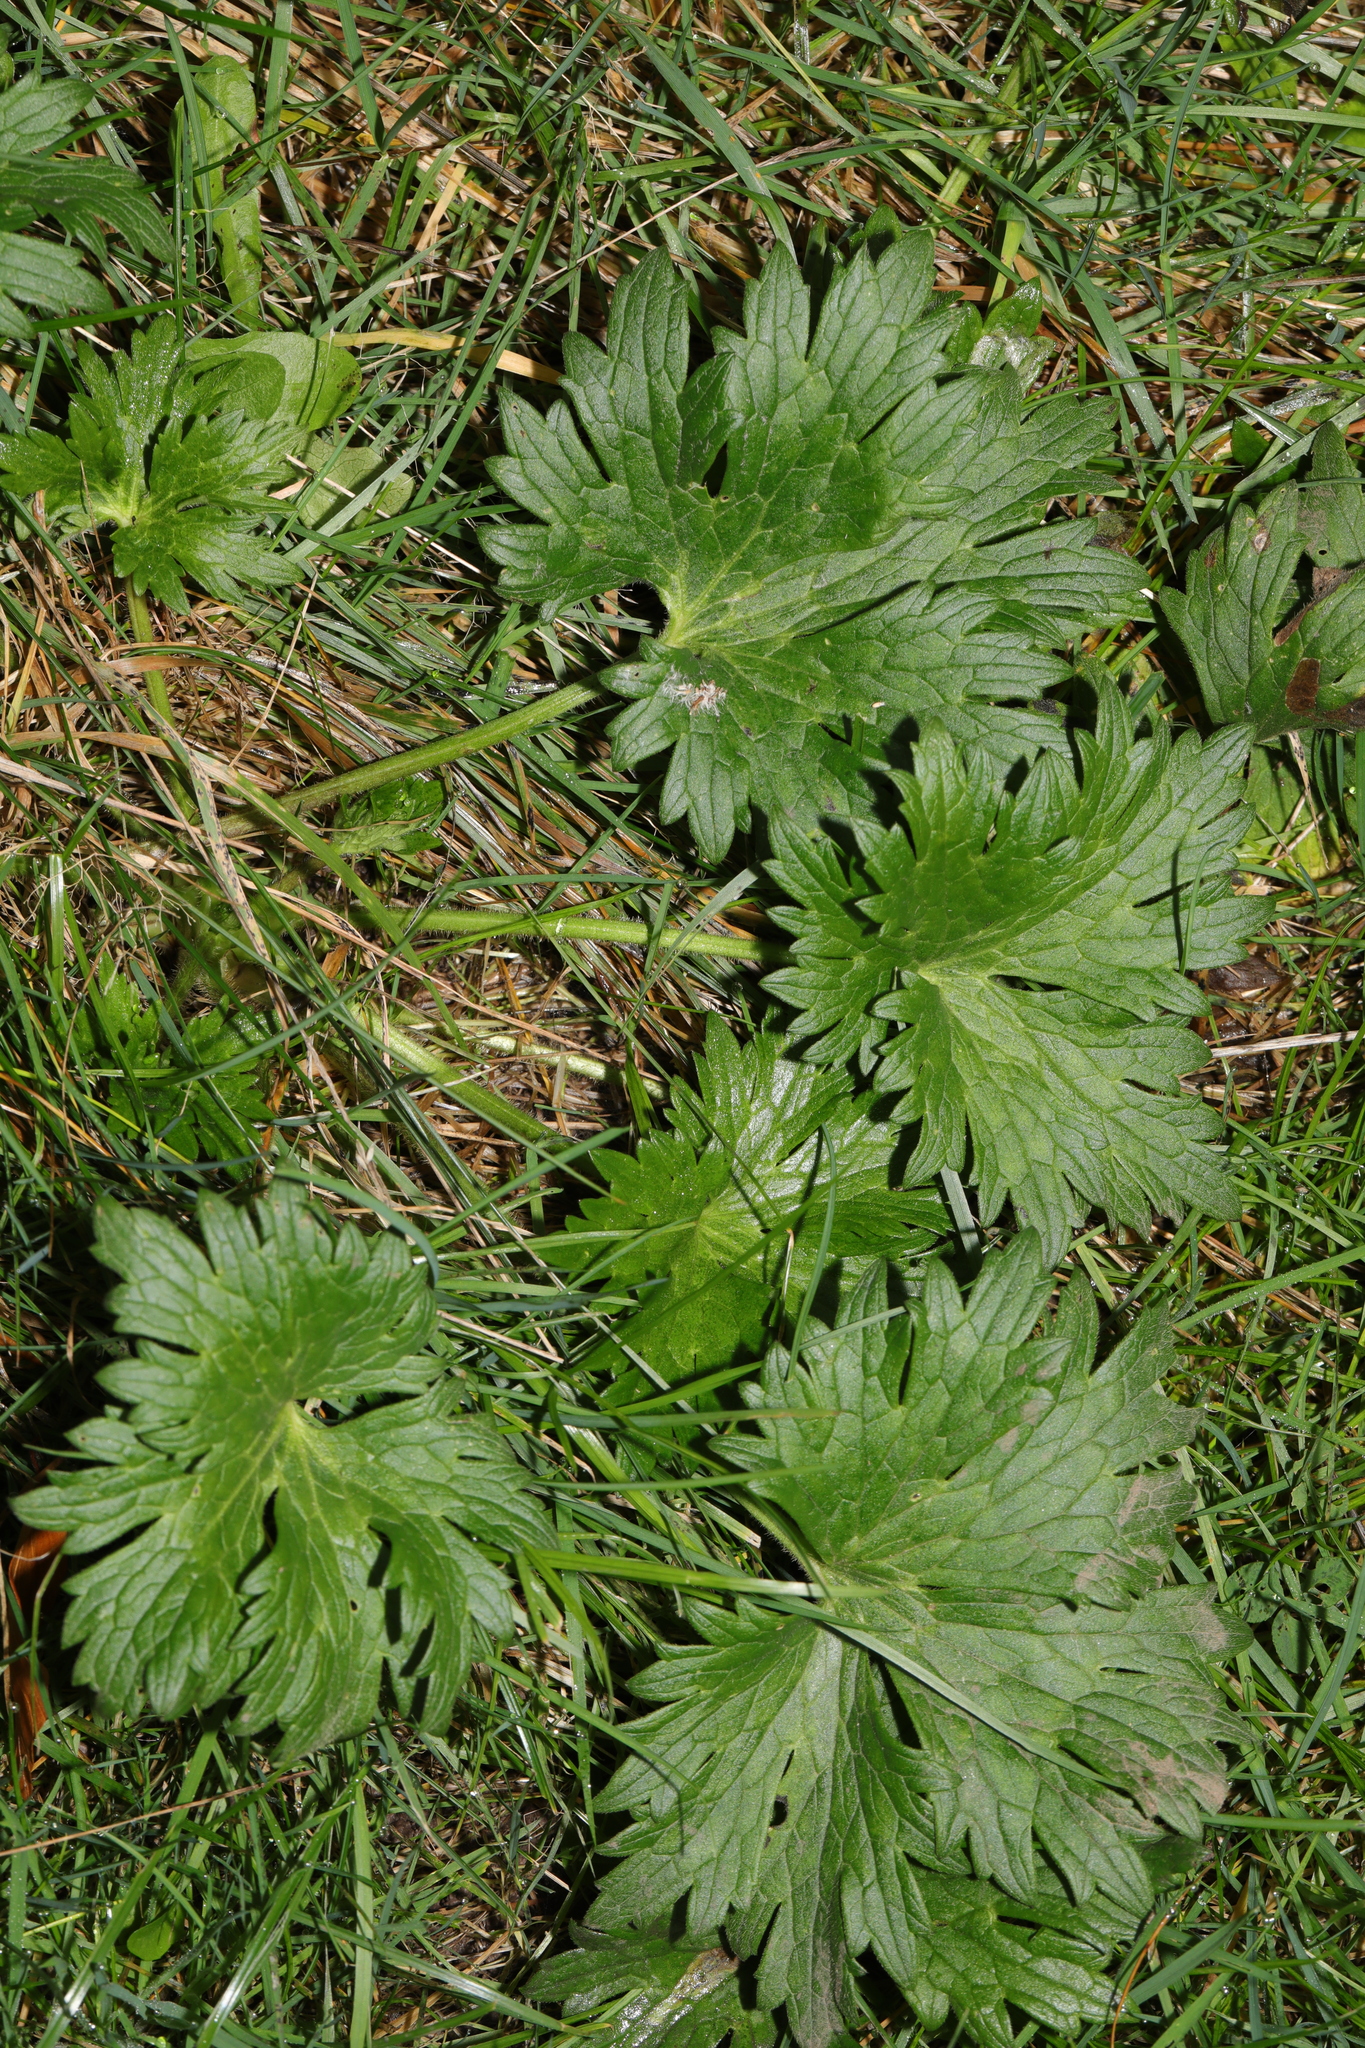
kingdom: Plantae
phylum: Tracheophyta
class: Magnoliopsida
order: Ranunculales
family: Ranunculaceae
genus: Ranunculus
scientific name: Ranunculus acris
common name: Meadow buttercup
